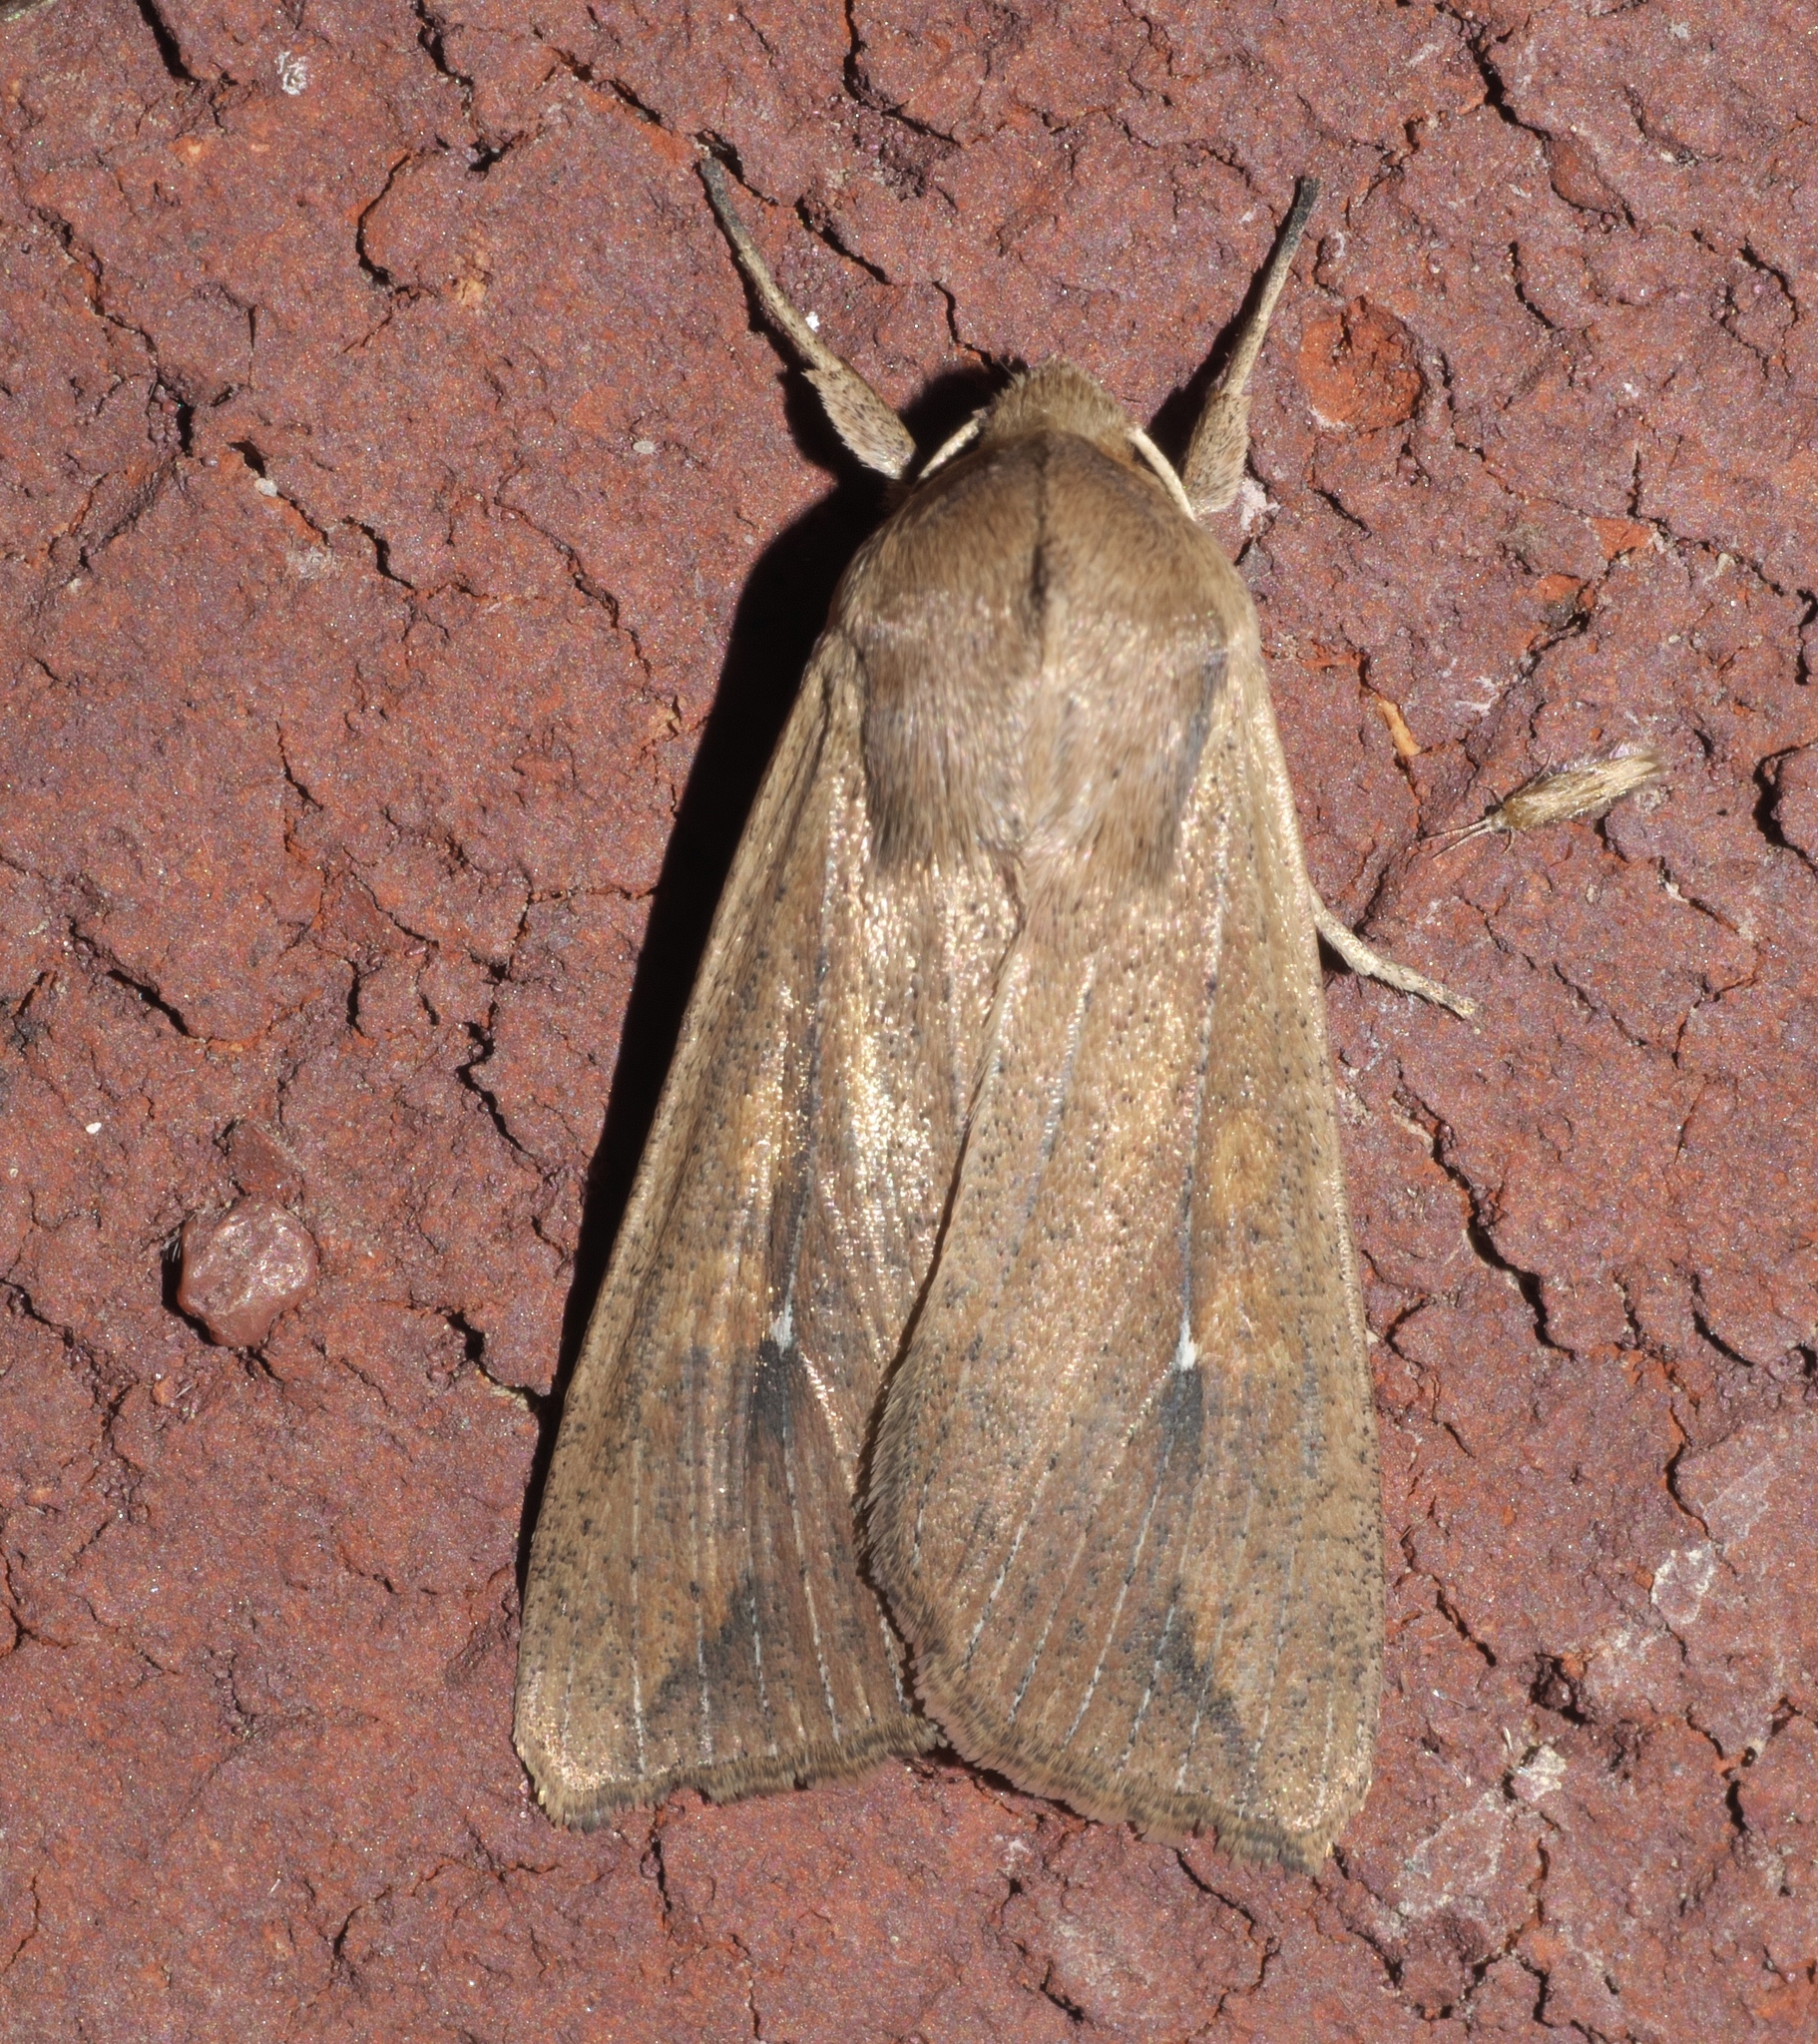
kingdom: Animalia
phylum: Arthropoda
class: Insecta
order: Lepidoptera
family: Noctuidae
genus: Mythimna
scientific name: Mythimna unipuncta
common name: White-speck
